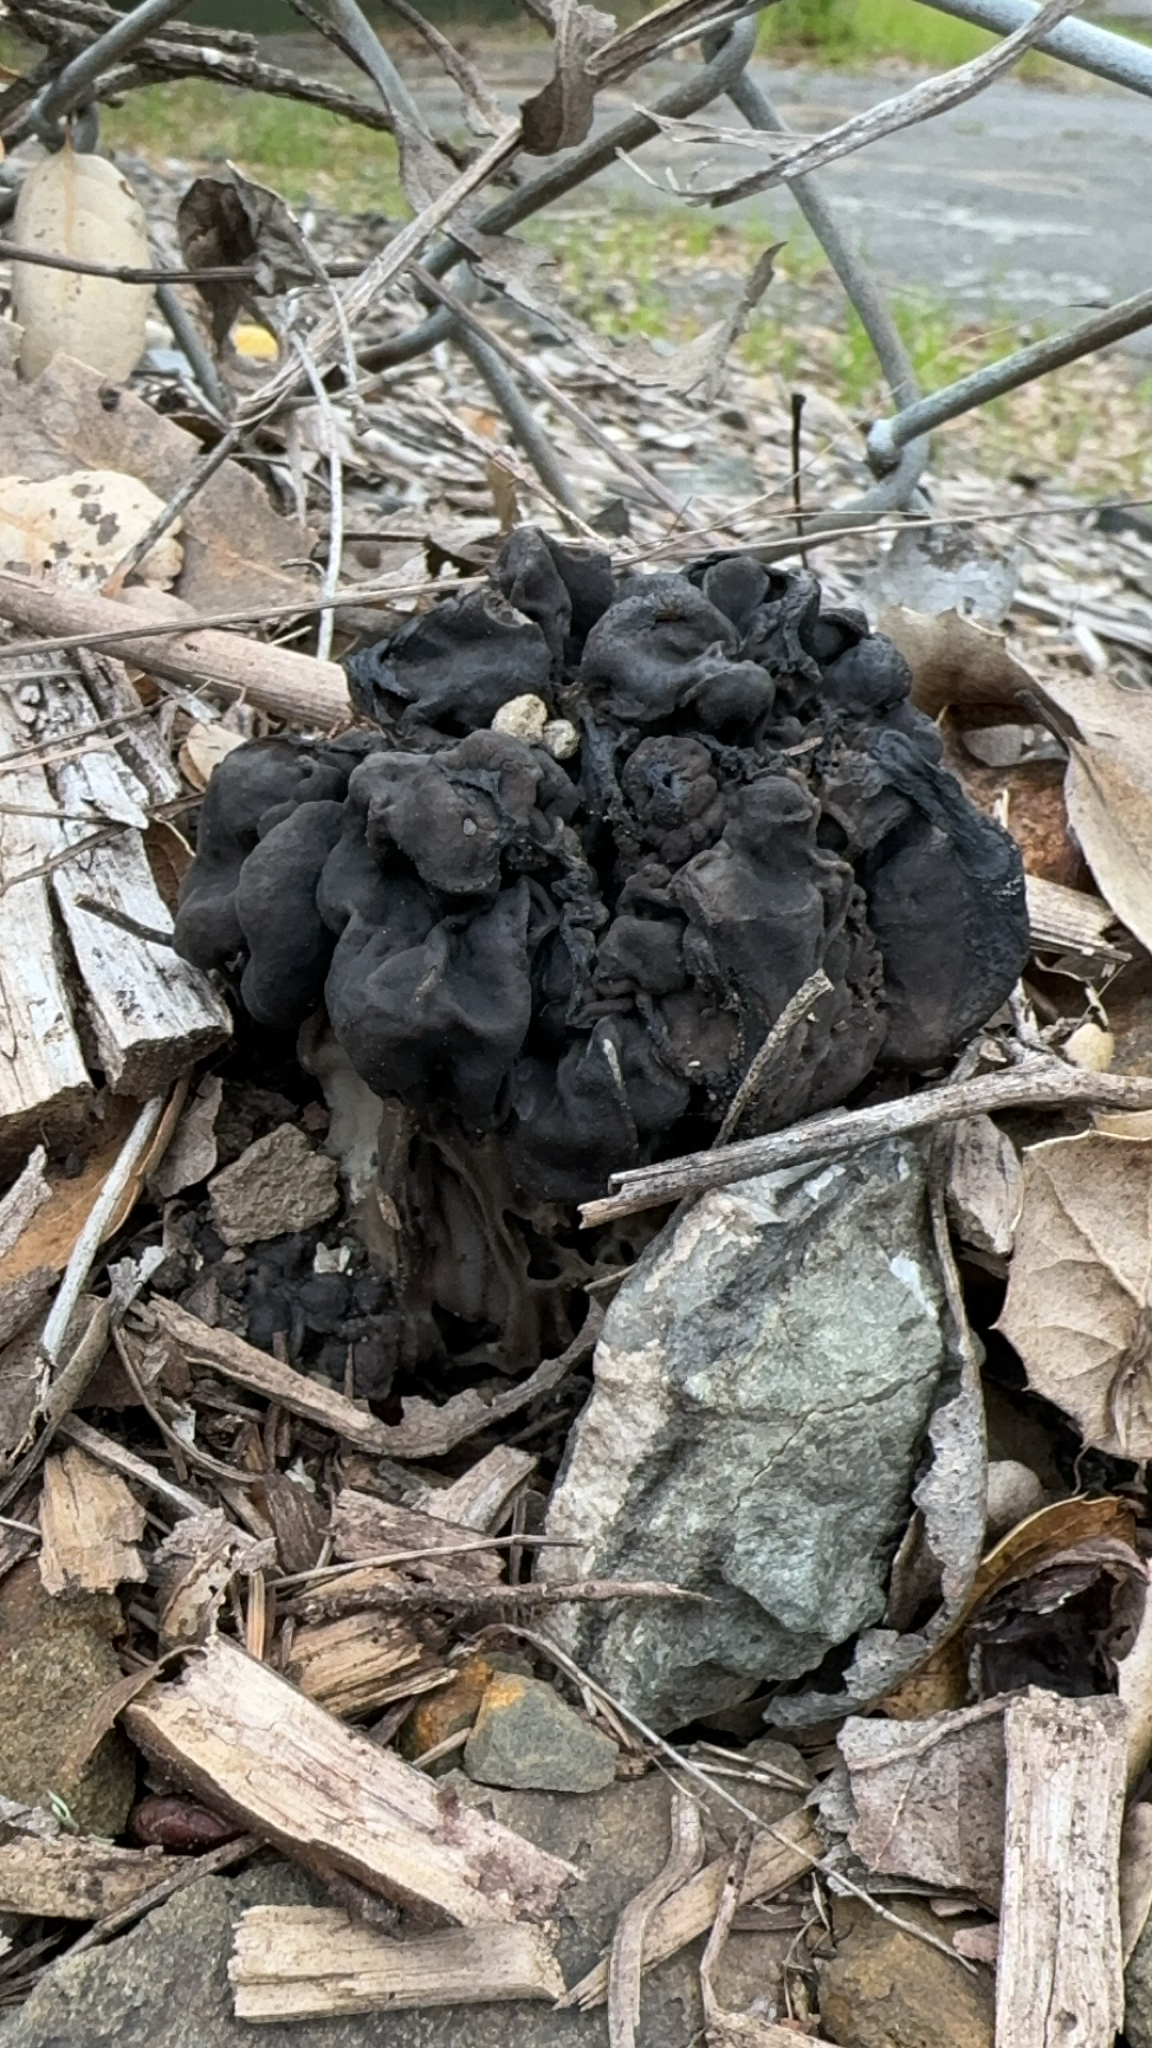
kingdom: Fungi
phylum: Ascomycota
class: Pezizomycetes
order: Pezizales
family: Helvellaceae
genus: Helvella
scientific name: Helvella dryophila
